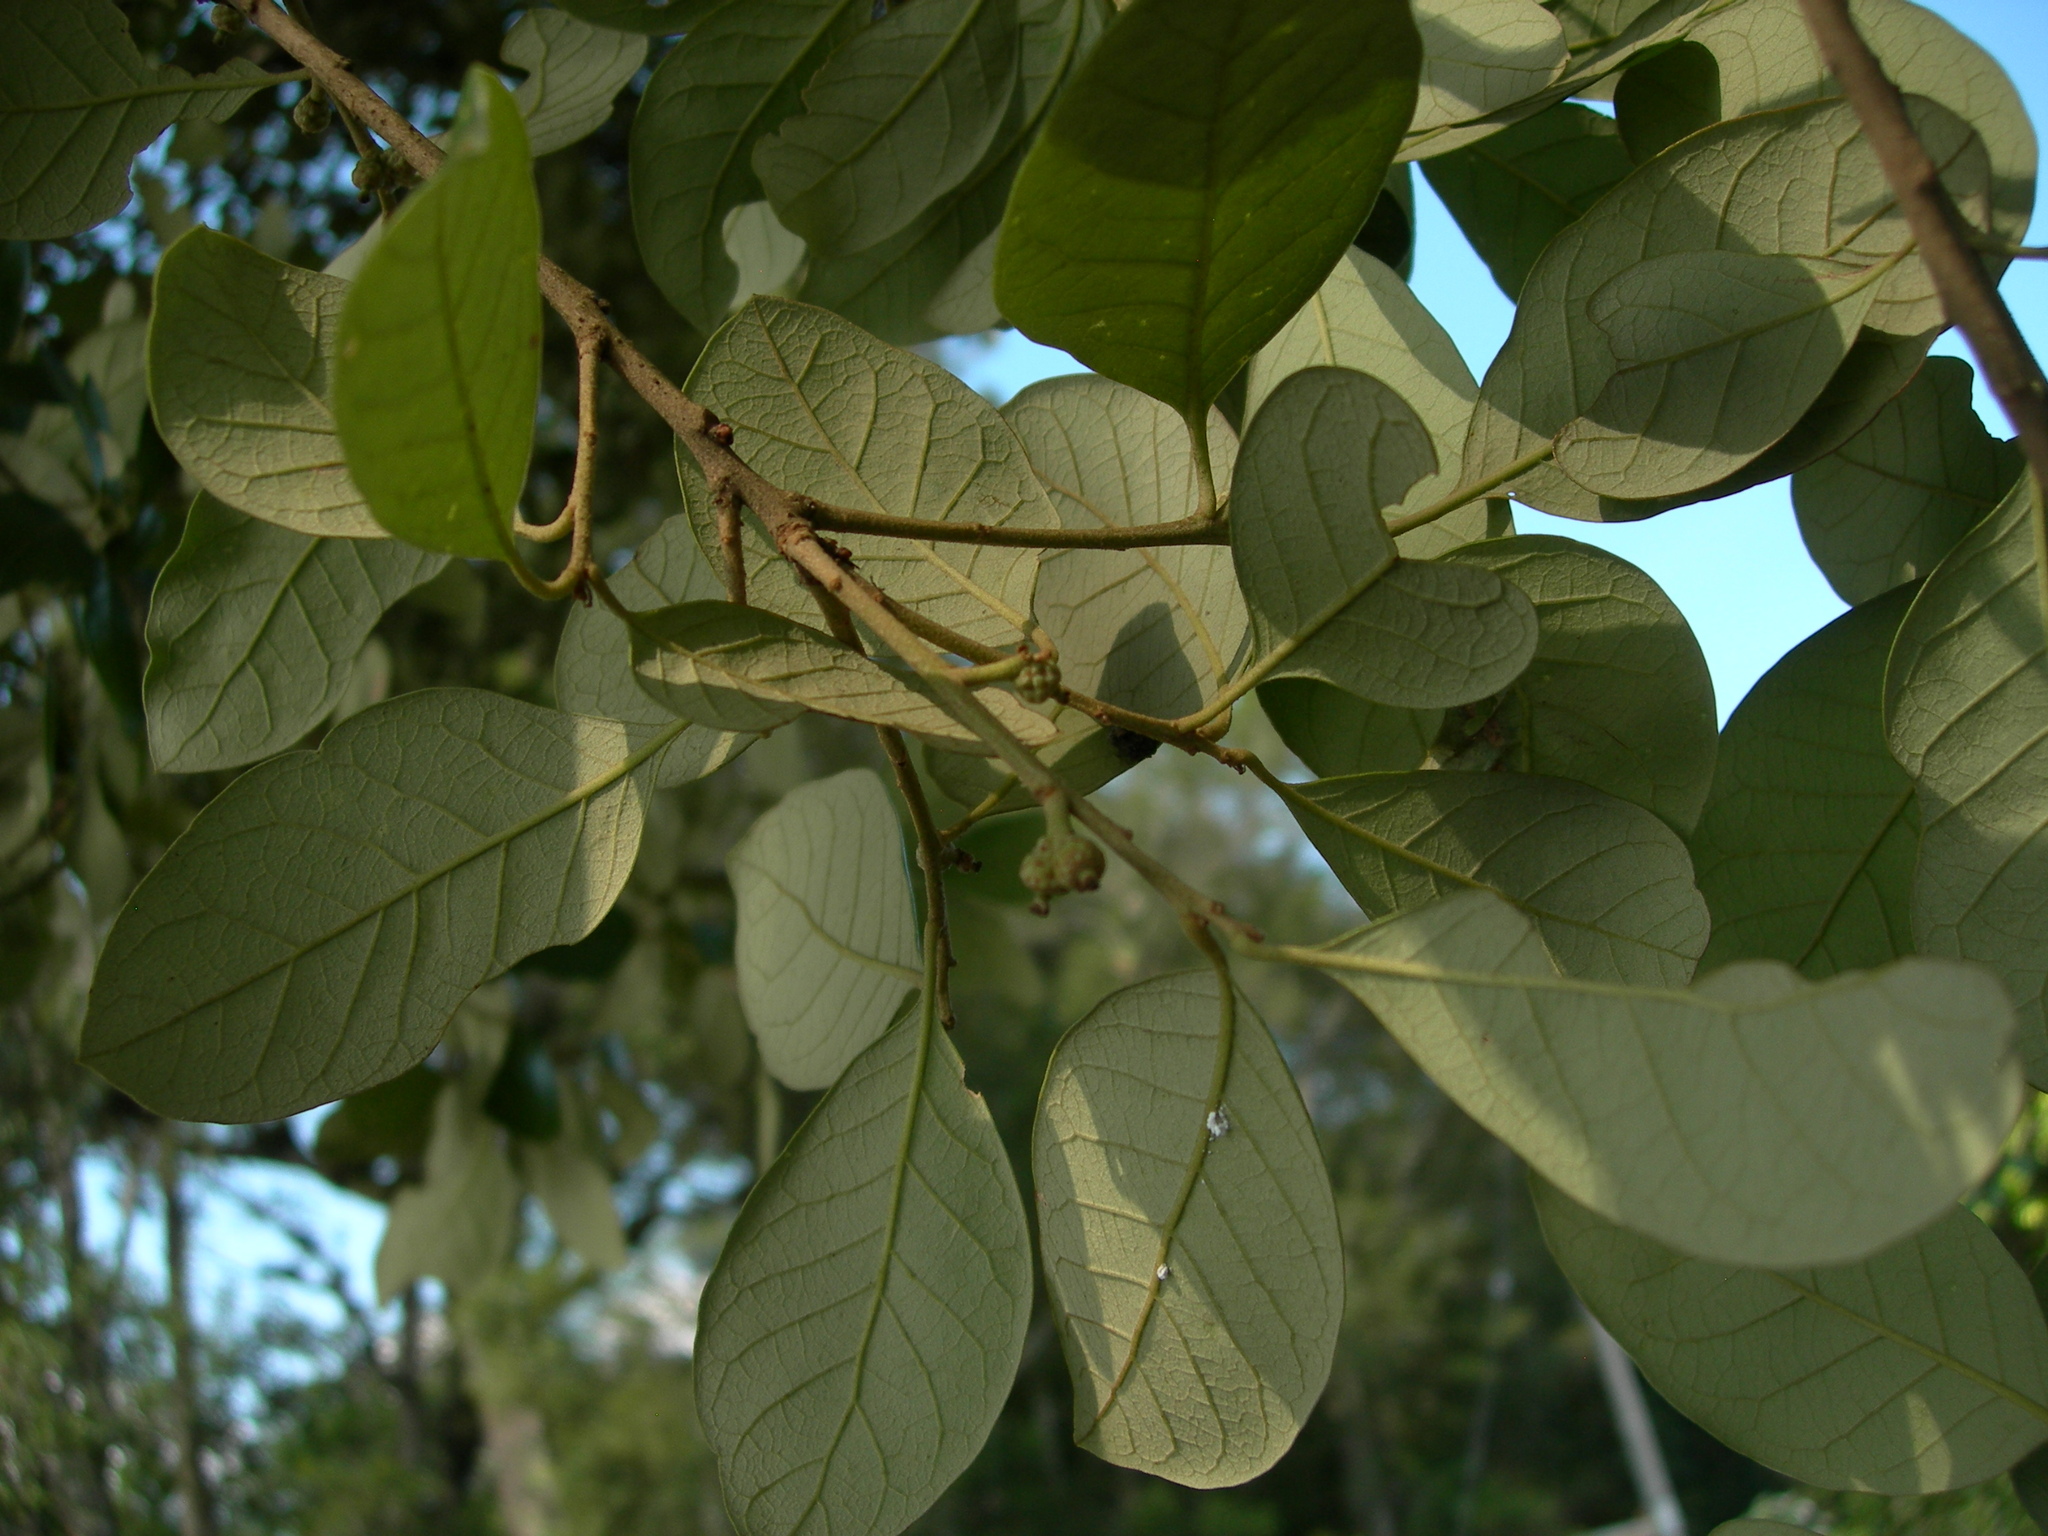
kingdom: Plantae
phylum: Tracheophyta
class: Magnoliopsida
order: Fagales
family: Fagaceae
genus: Quercus
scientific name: Quercus oleoides
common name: White oak
